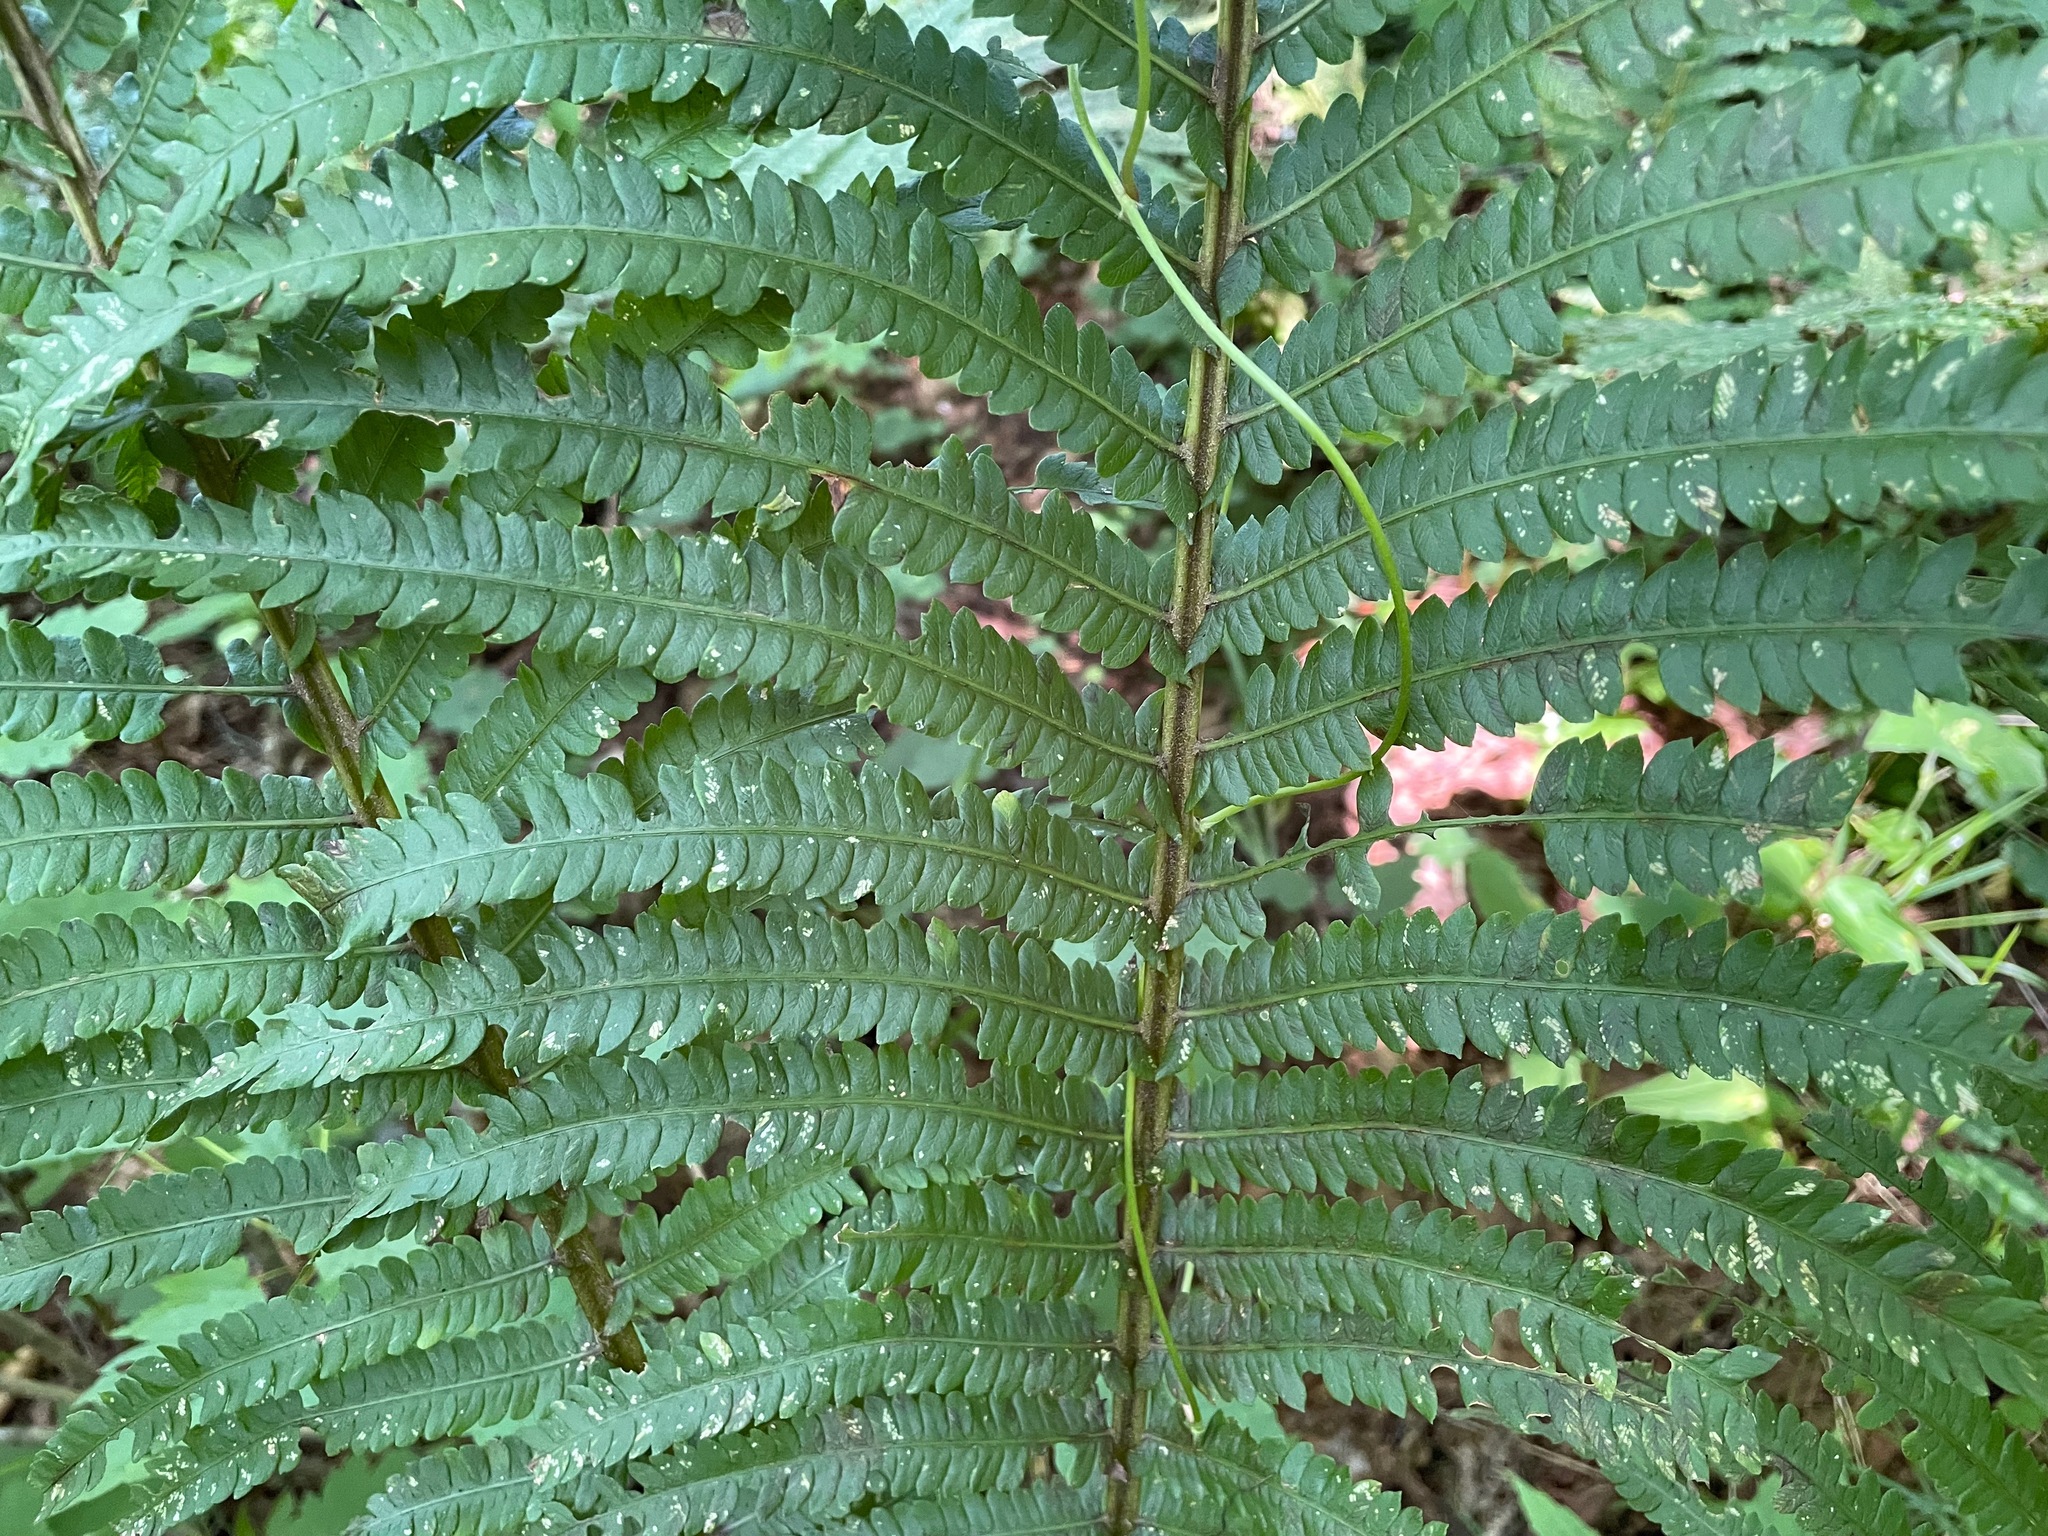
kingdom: Plantae
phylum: Tracheophyta
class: Polypodiopsida
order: Polypodiales
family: Onocleaceae
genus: Matteuccia
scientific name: Matteuccia struthiopteris
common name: Ostrich fern
